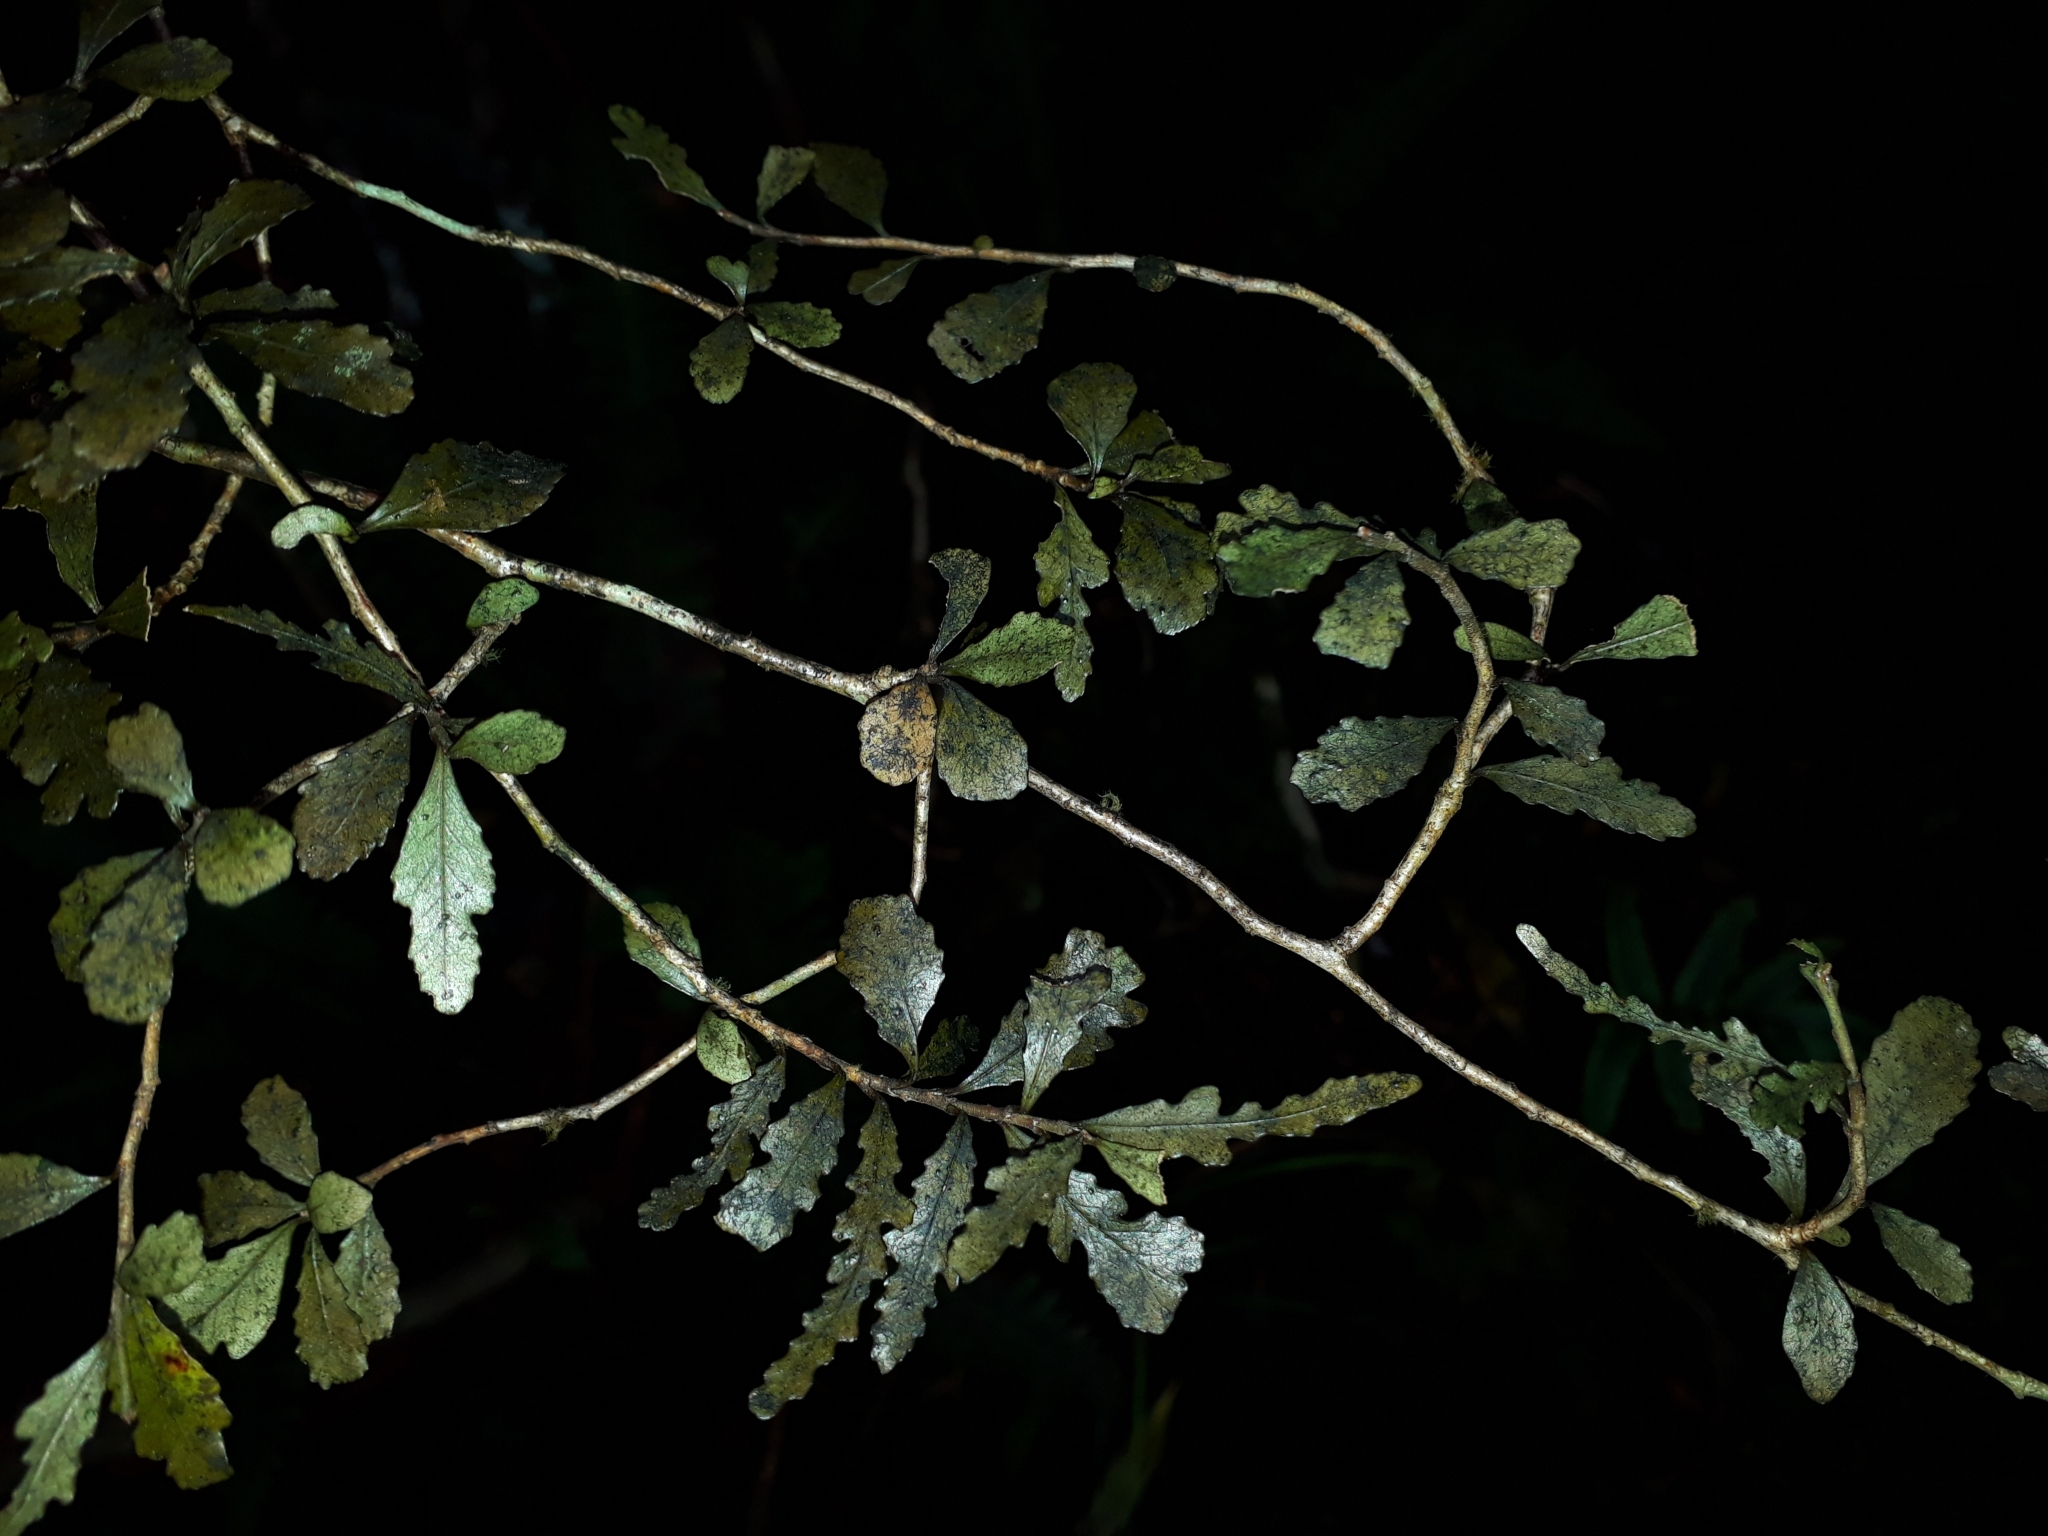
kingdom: Plantae
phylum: Tracheophyta
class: Magnoliopsida
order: Oxalidales
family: Elaeocarpaceae
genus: Elaeocarpus
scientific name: Elaeocarpus hookerianus
